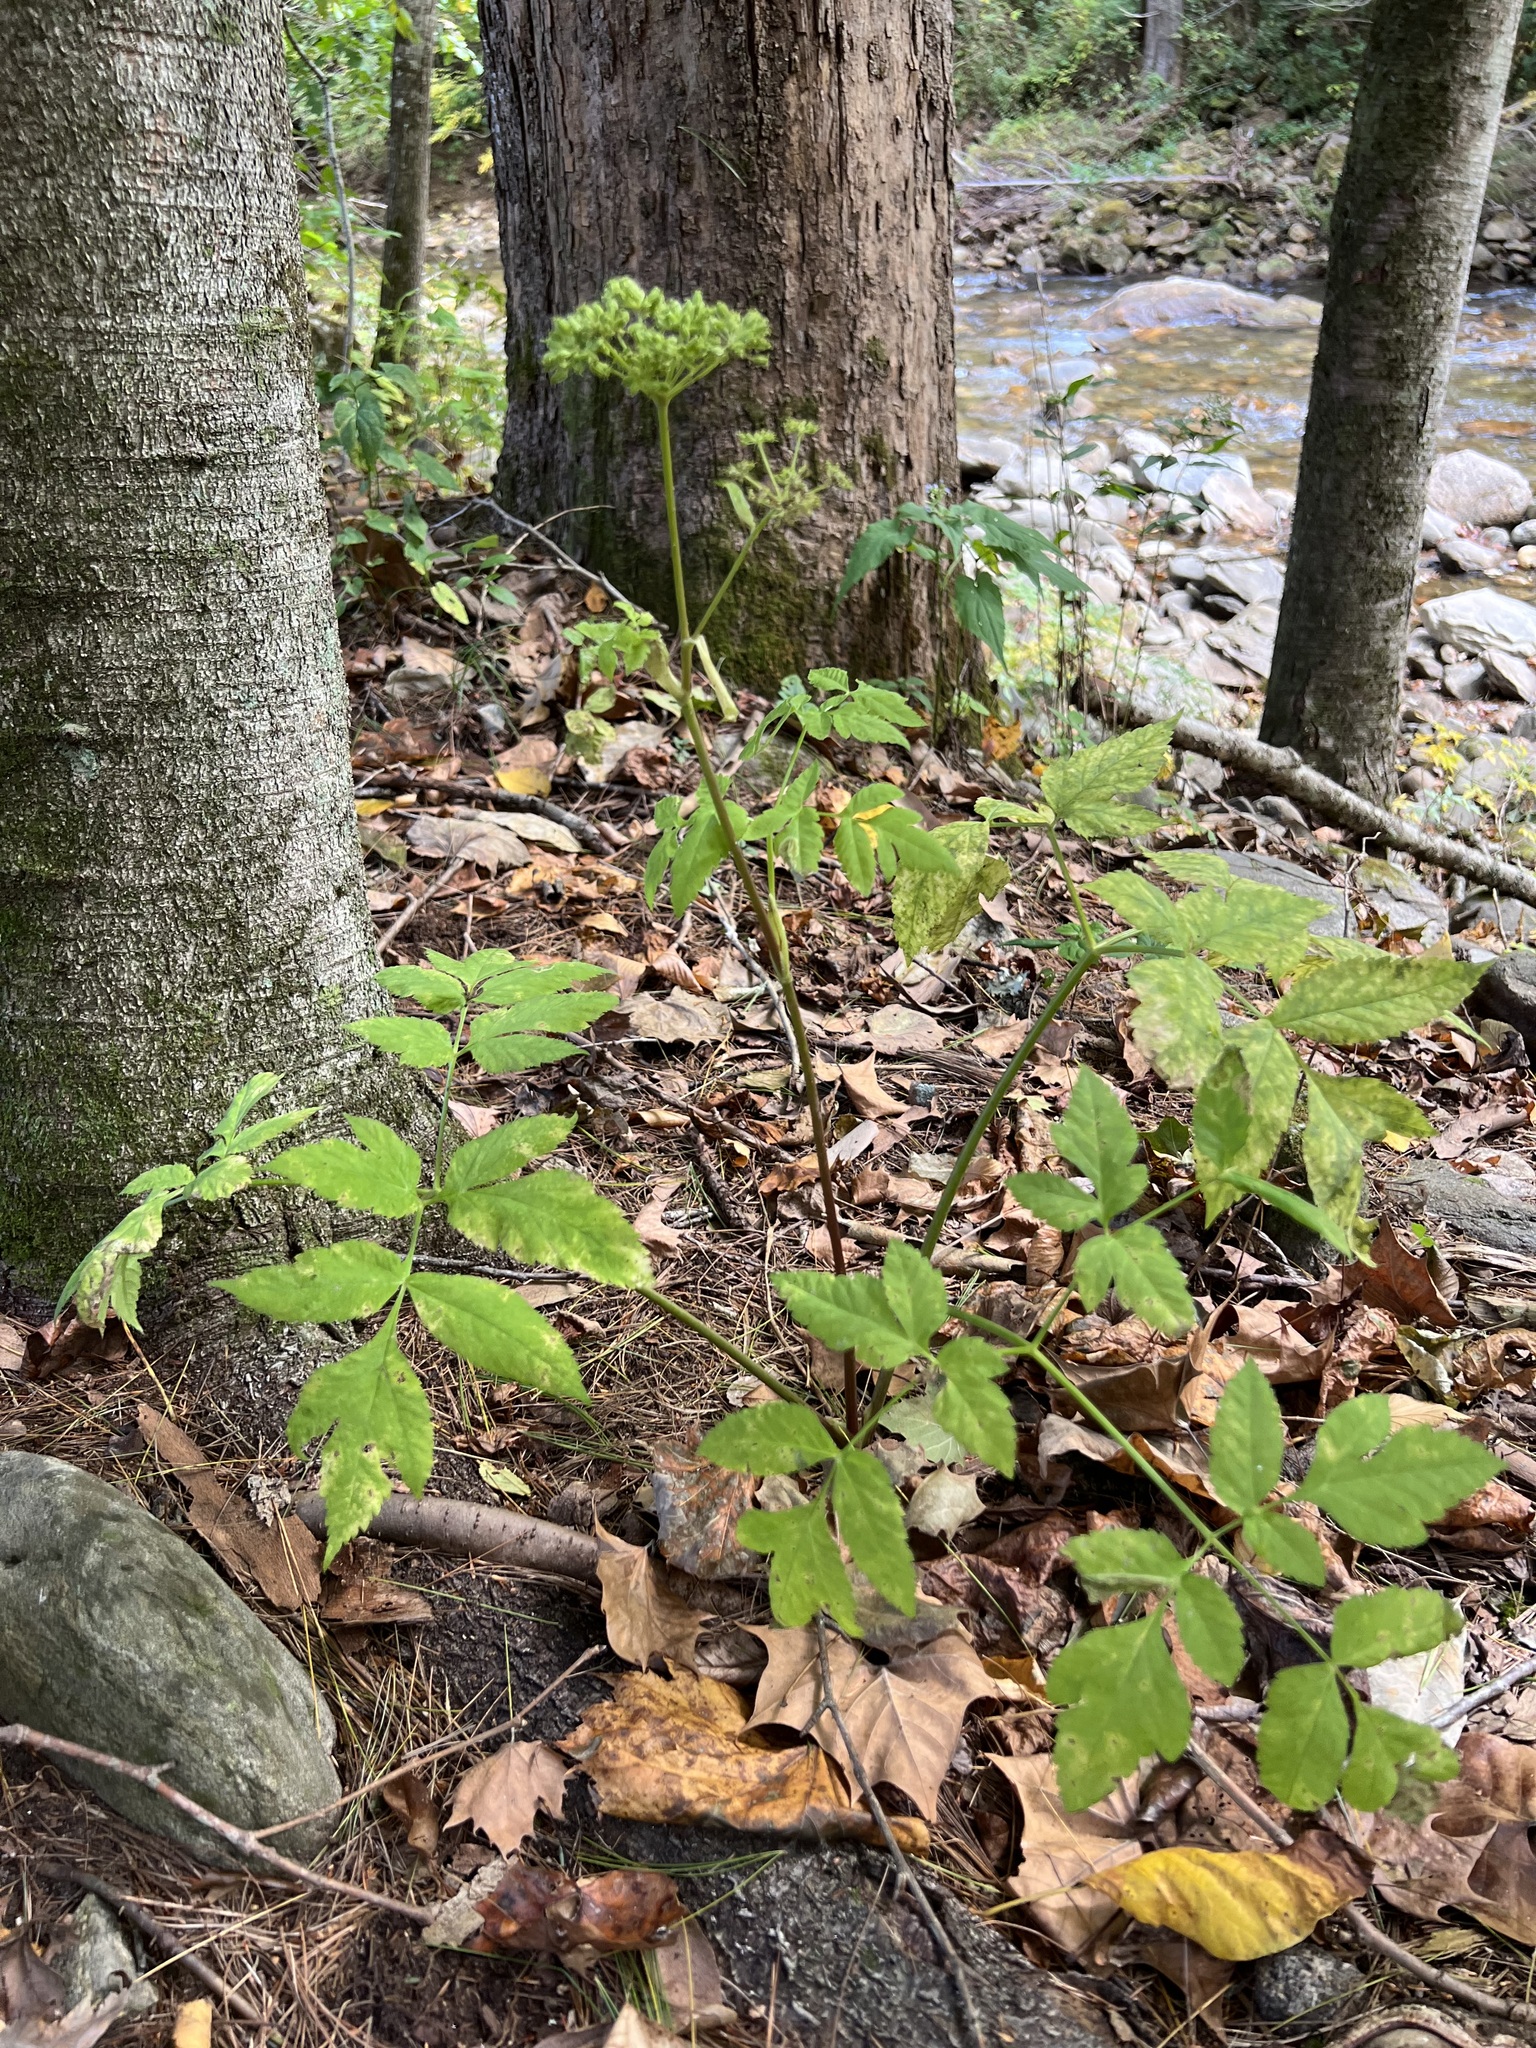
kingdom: Plantae
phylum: Tracheophyta
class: Magnoliopsida
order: Apiales
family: Apiaceae
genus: Angelica
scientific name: Angelica triquinata
